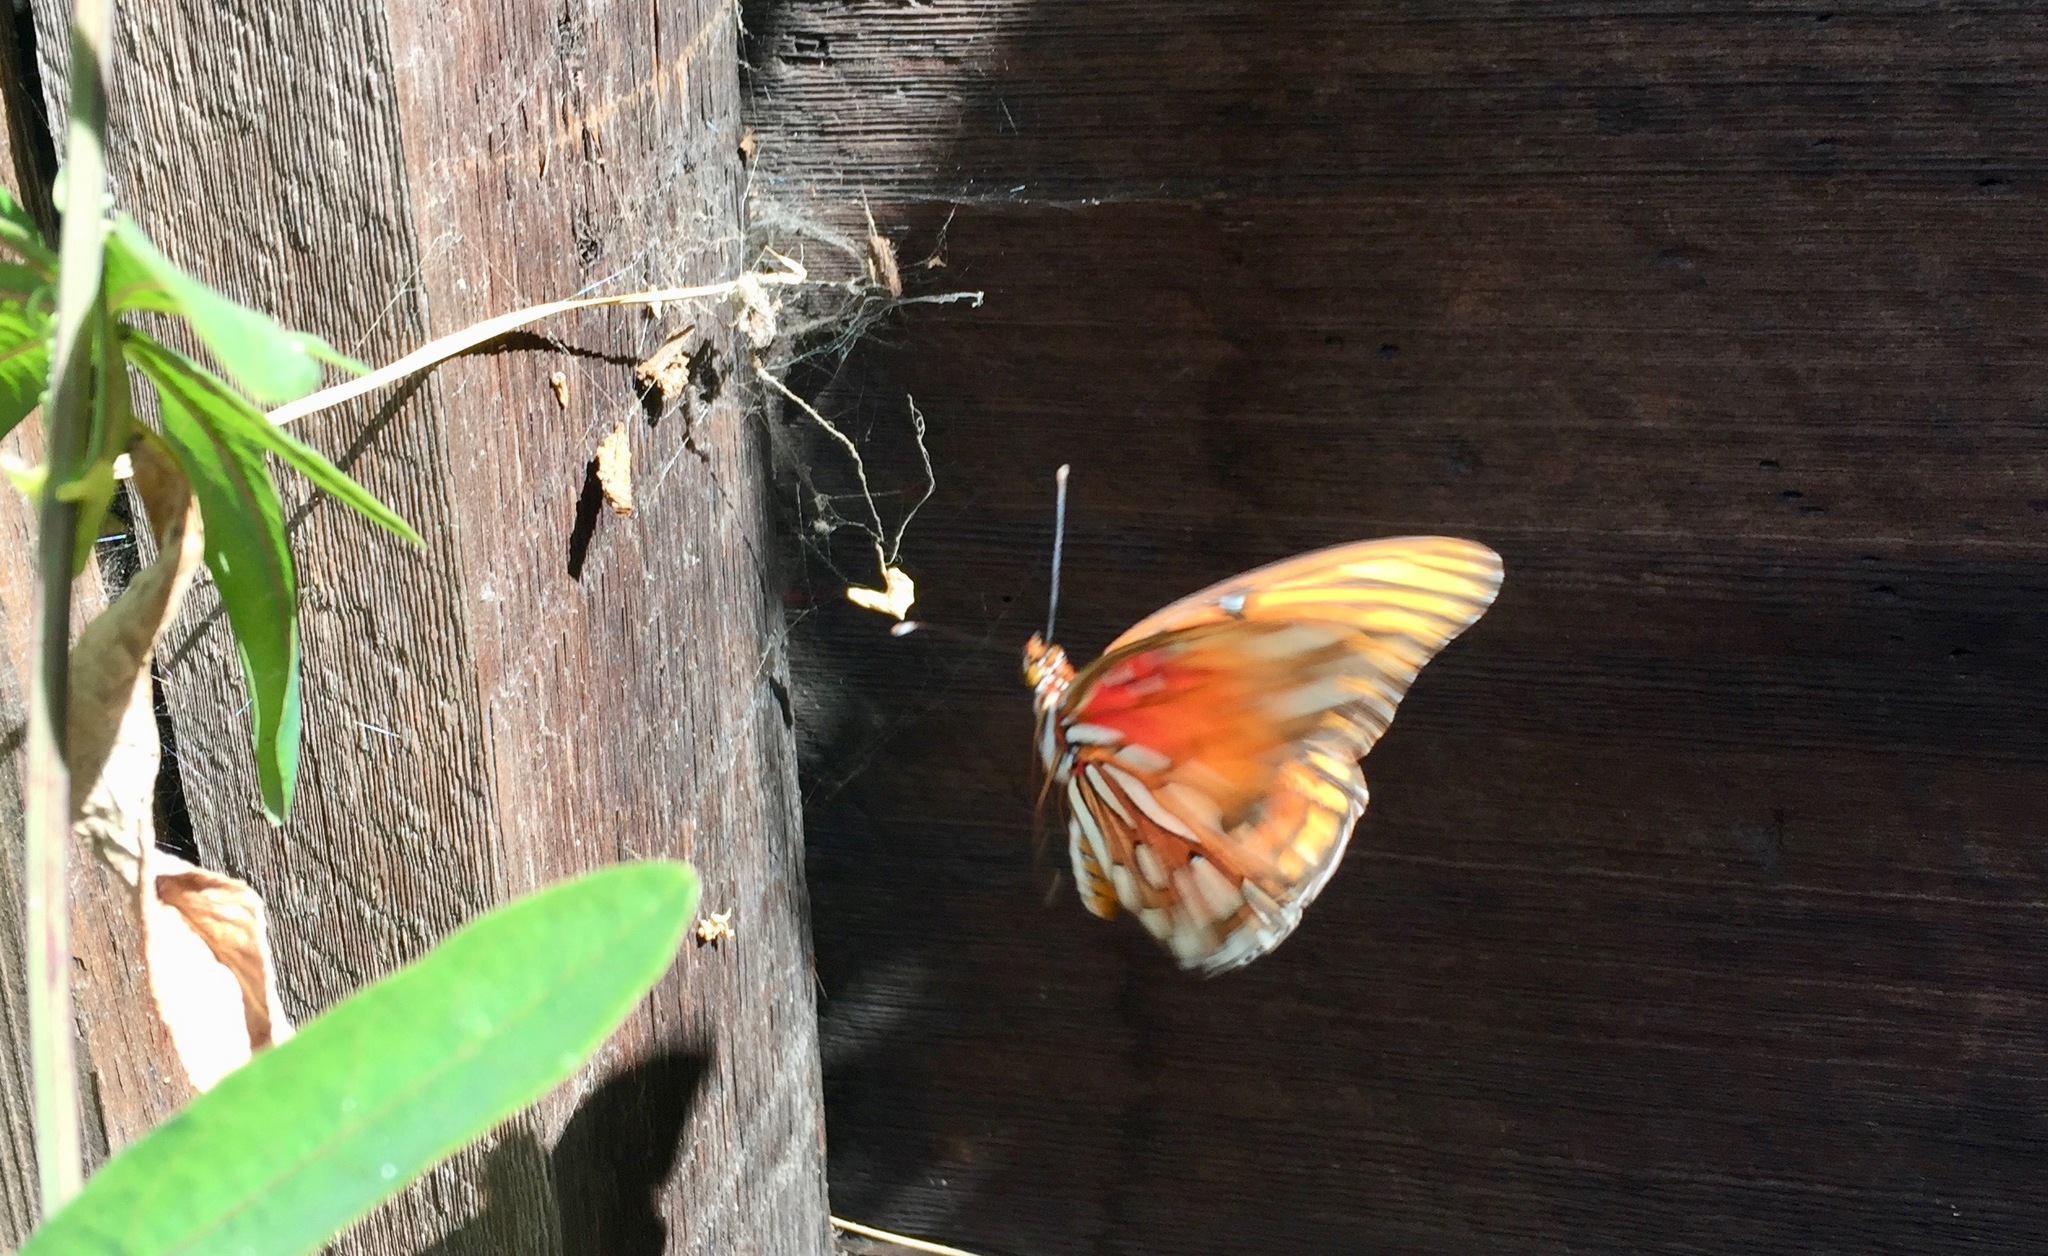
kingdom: Animalia
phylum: Arthropoda
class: Insecta
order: Lepidoptera
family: Nymphalidae
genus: Dione
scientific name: Dione vanillae
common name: Gulf fritillary
